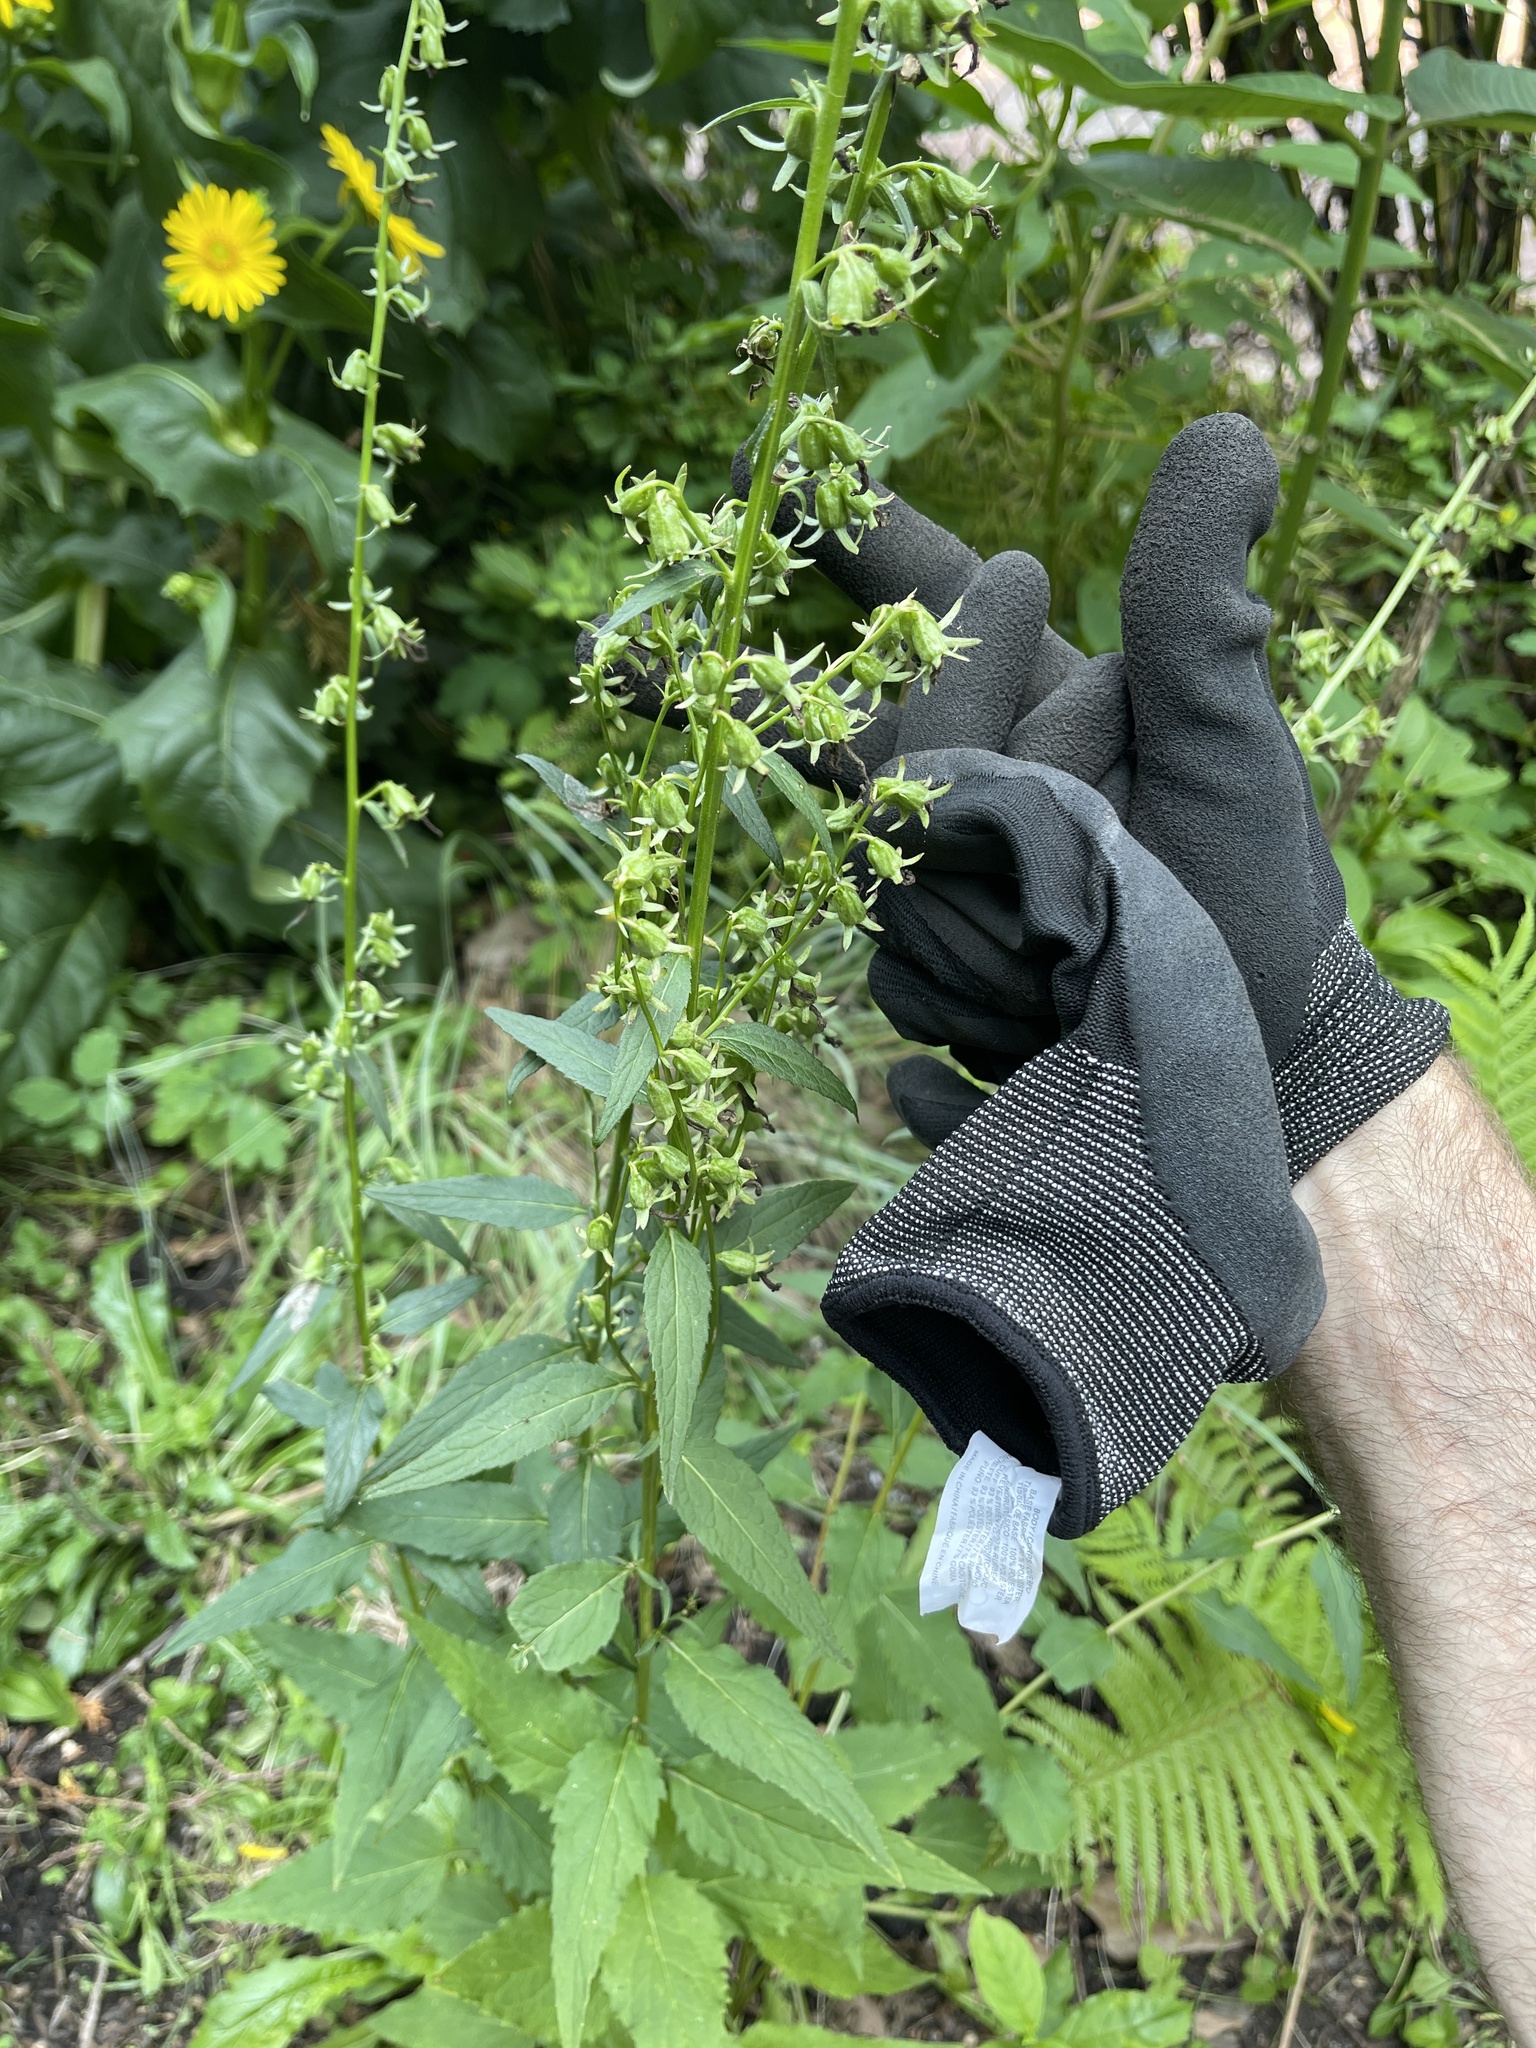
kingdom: Plantae
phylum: Tracheophyta
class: Magnoliopsida
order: Asterales
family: Campanulaceae
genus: Campanula
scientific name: Campanula rapunculoides
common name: Creeping bellflower
